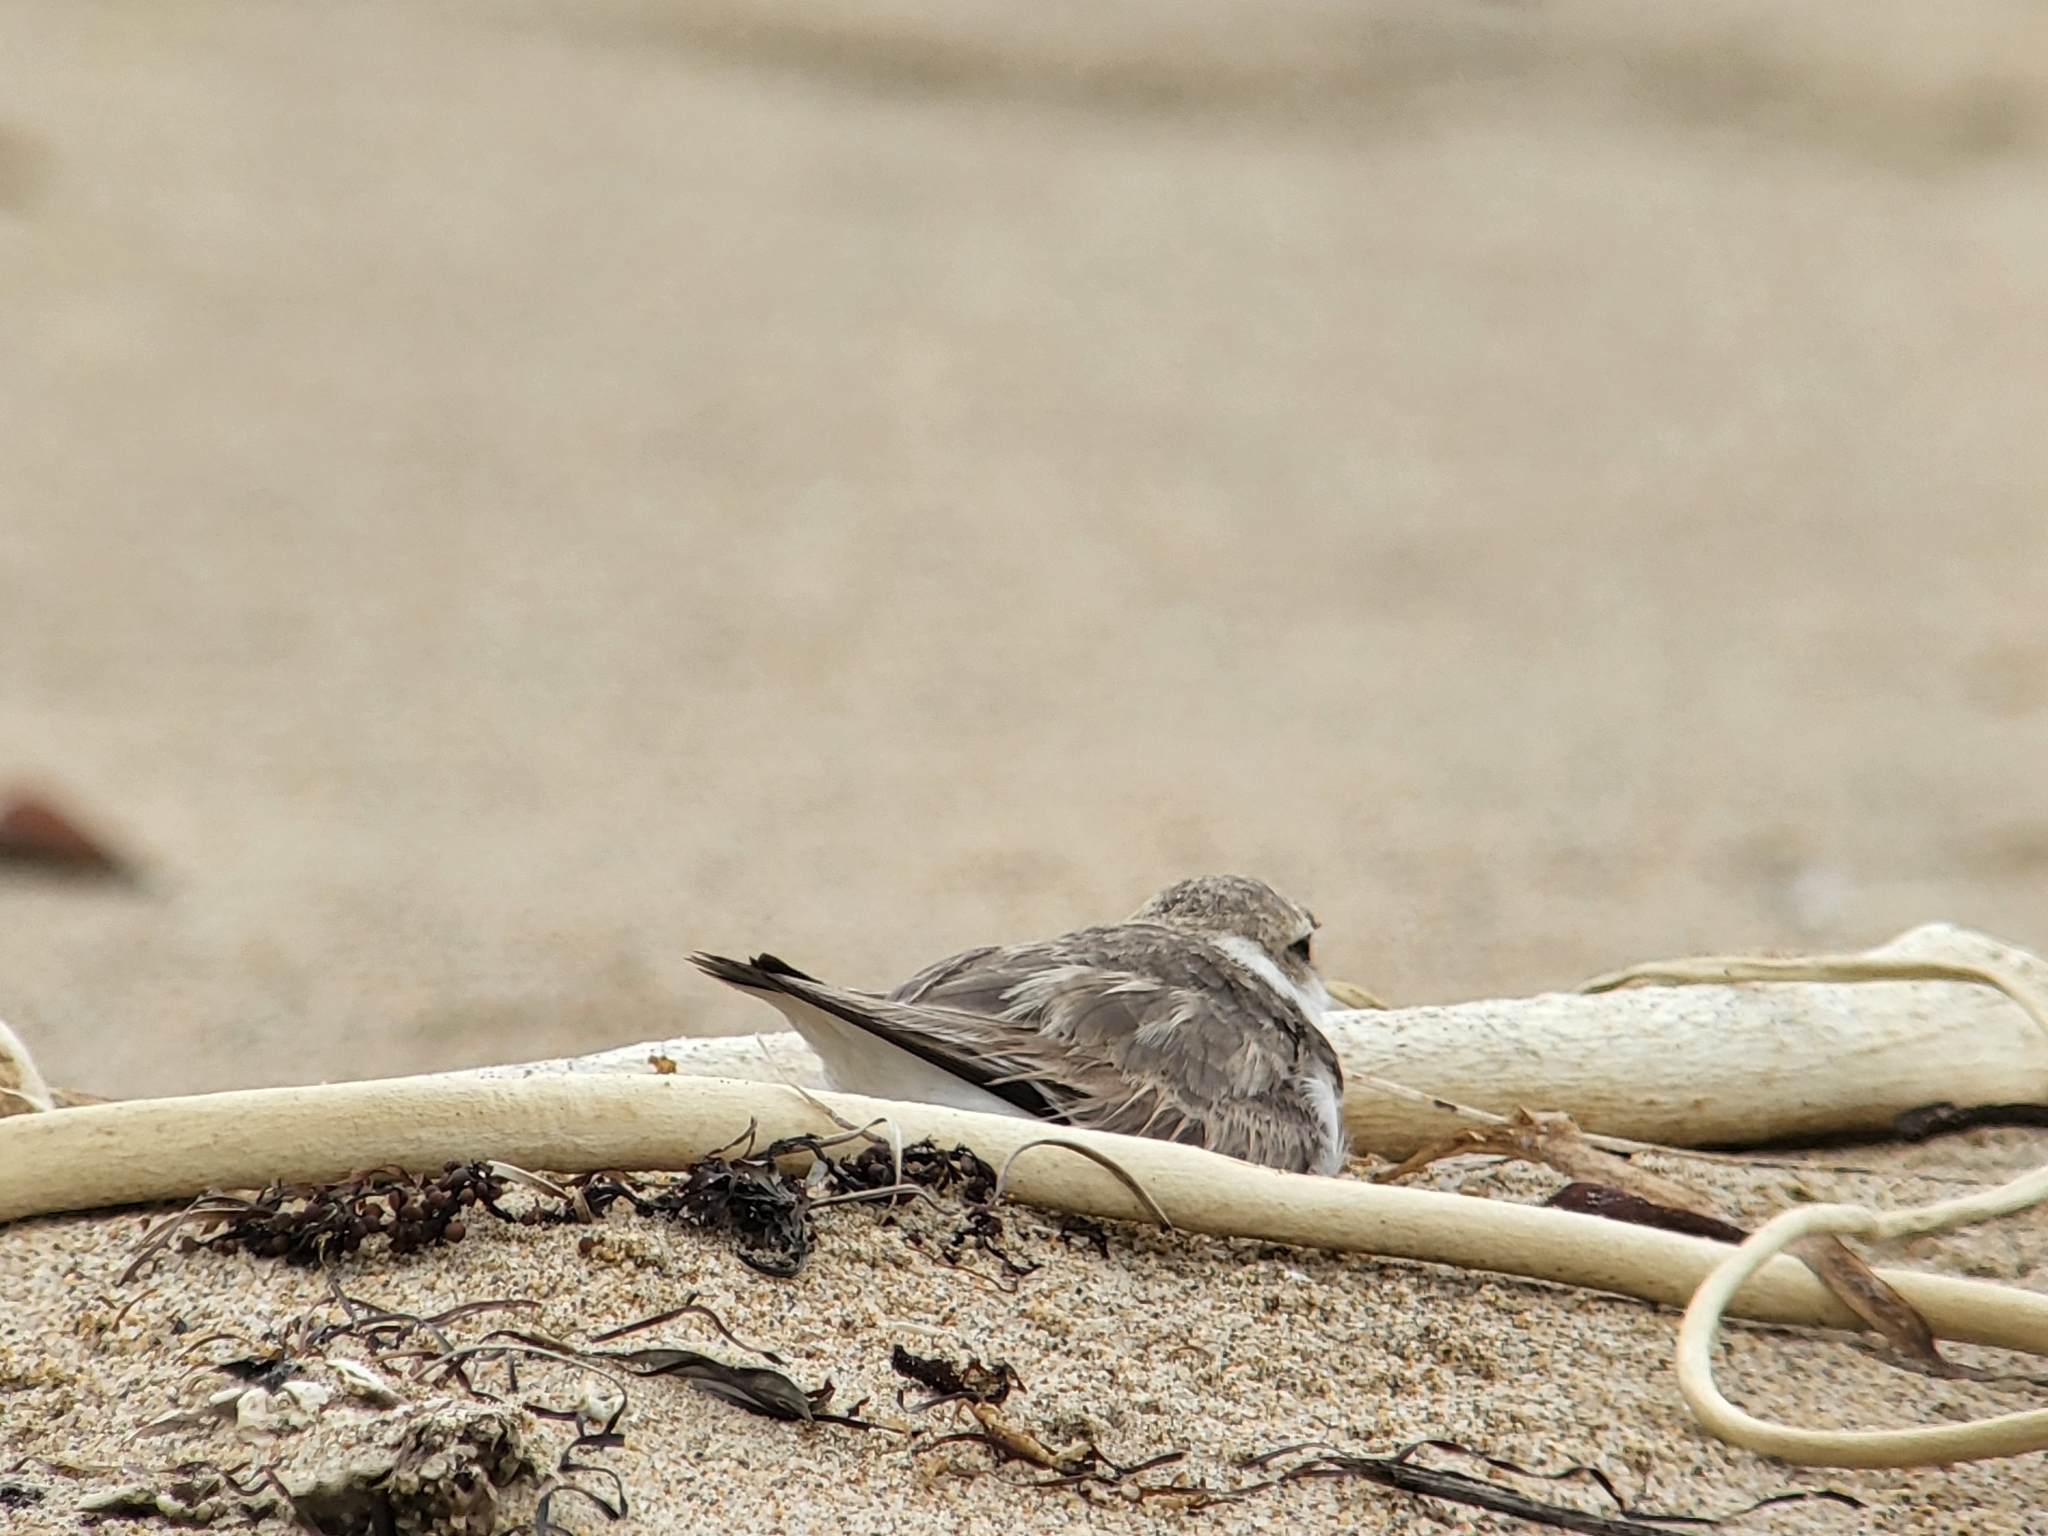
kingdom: Animalia
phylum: Chordata
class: Aves
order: Charadriiformes
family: Charadriidae
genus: Anarhynchus
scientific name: Anarhynchus
